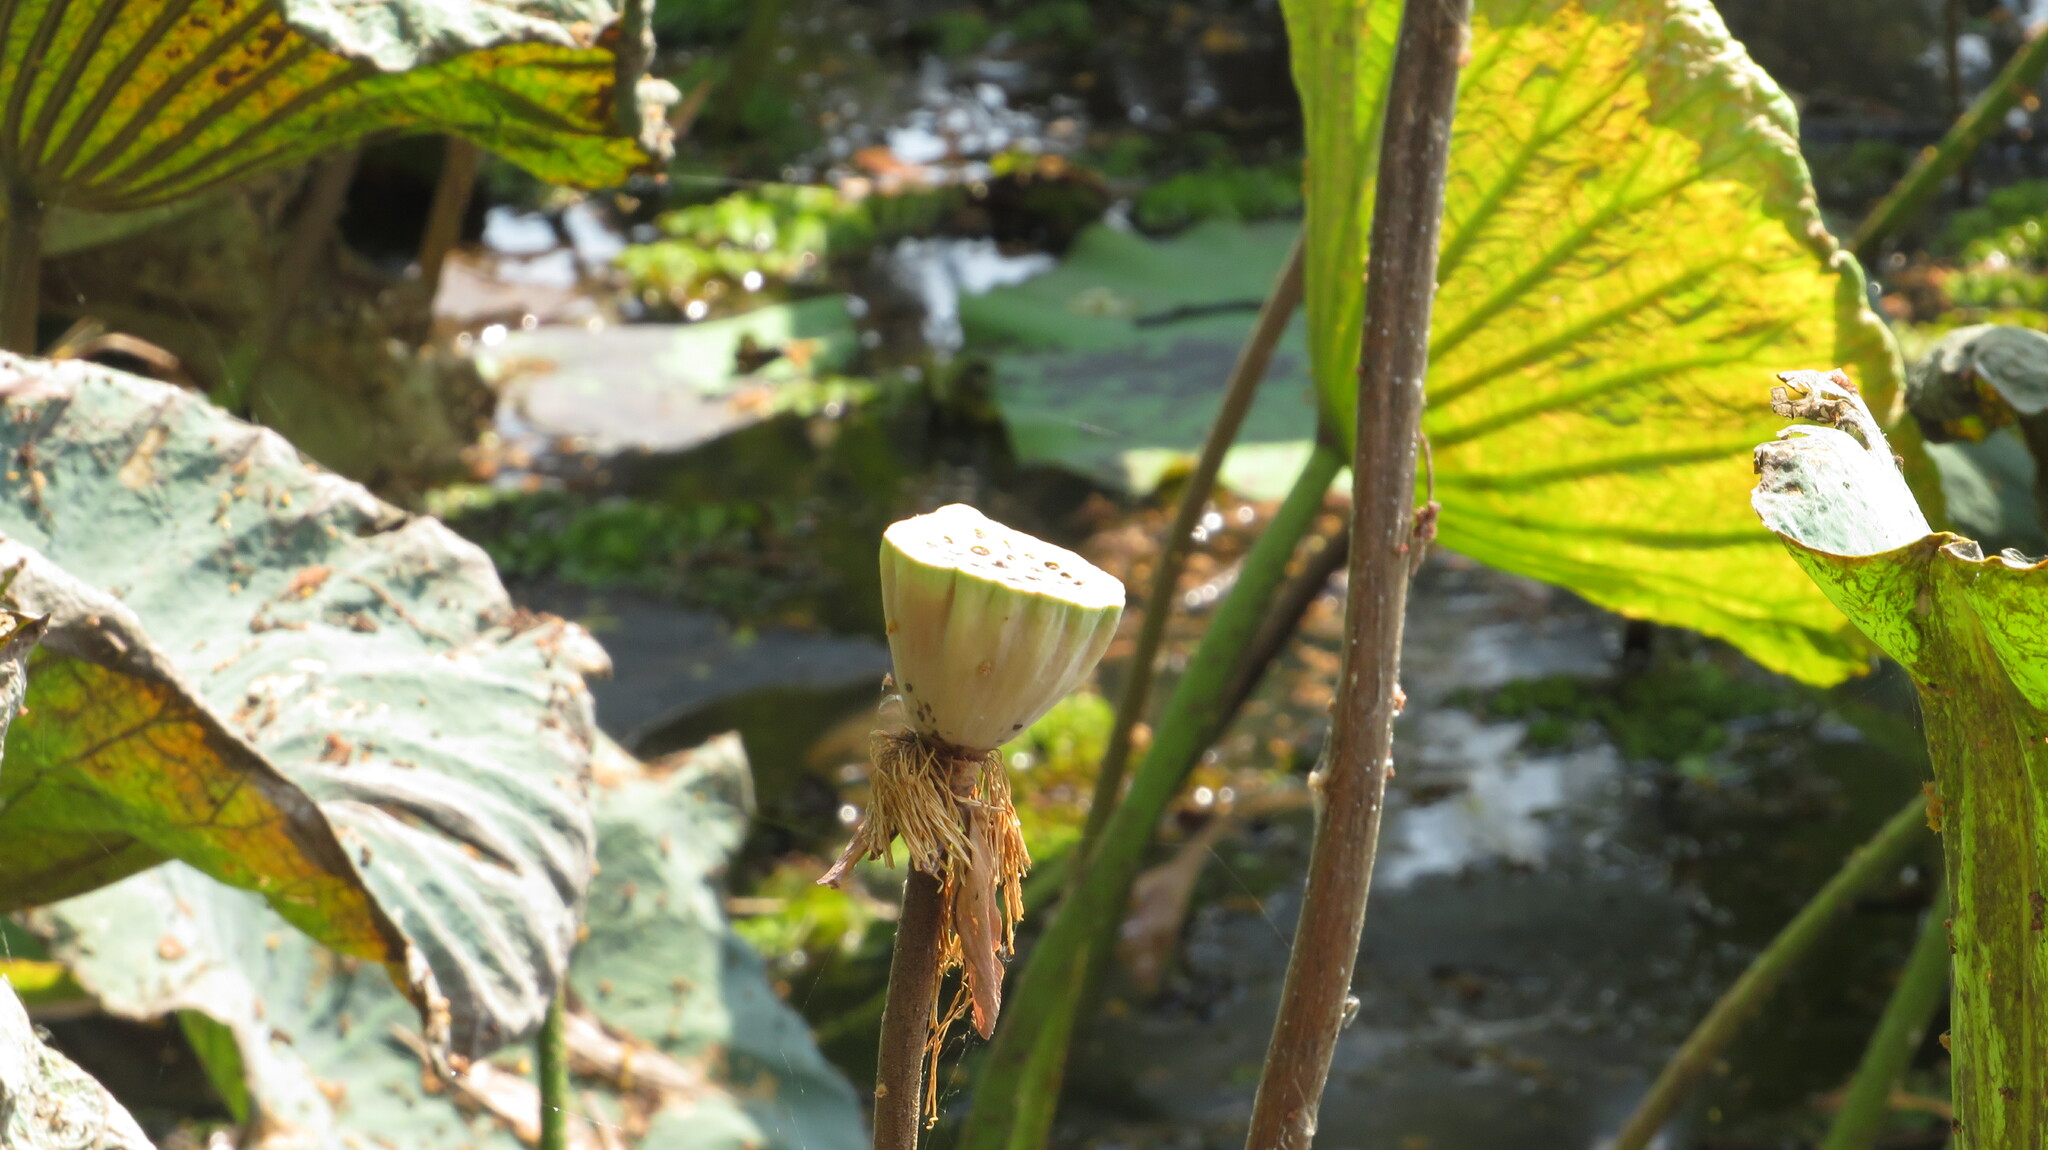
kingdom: Plantae
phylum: Tracheophyta
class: Magnoliopsida
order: Proteales
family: Nelumbonaceae
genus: Nelumbo
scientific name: Nelumbo nucifera
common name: Sacred lotus
